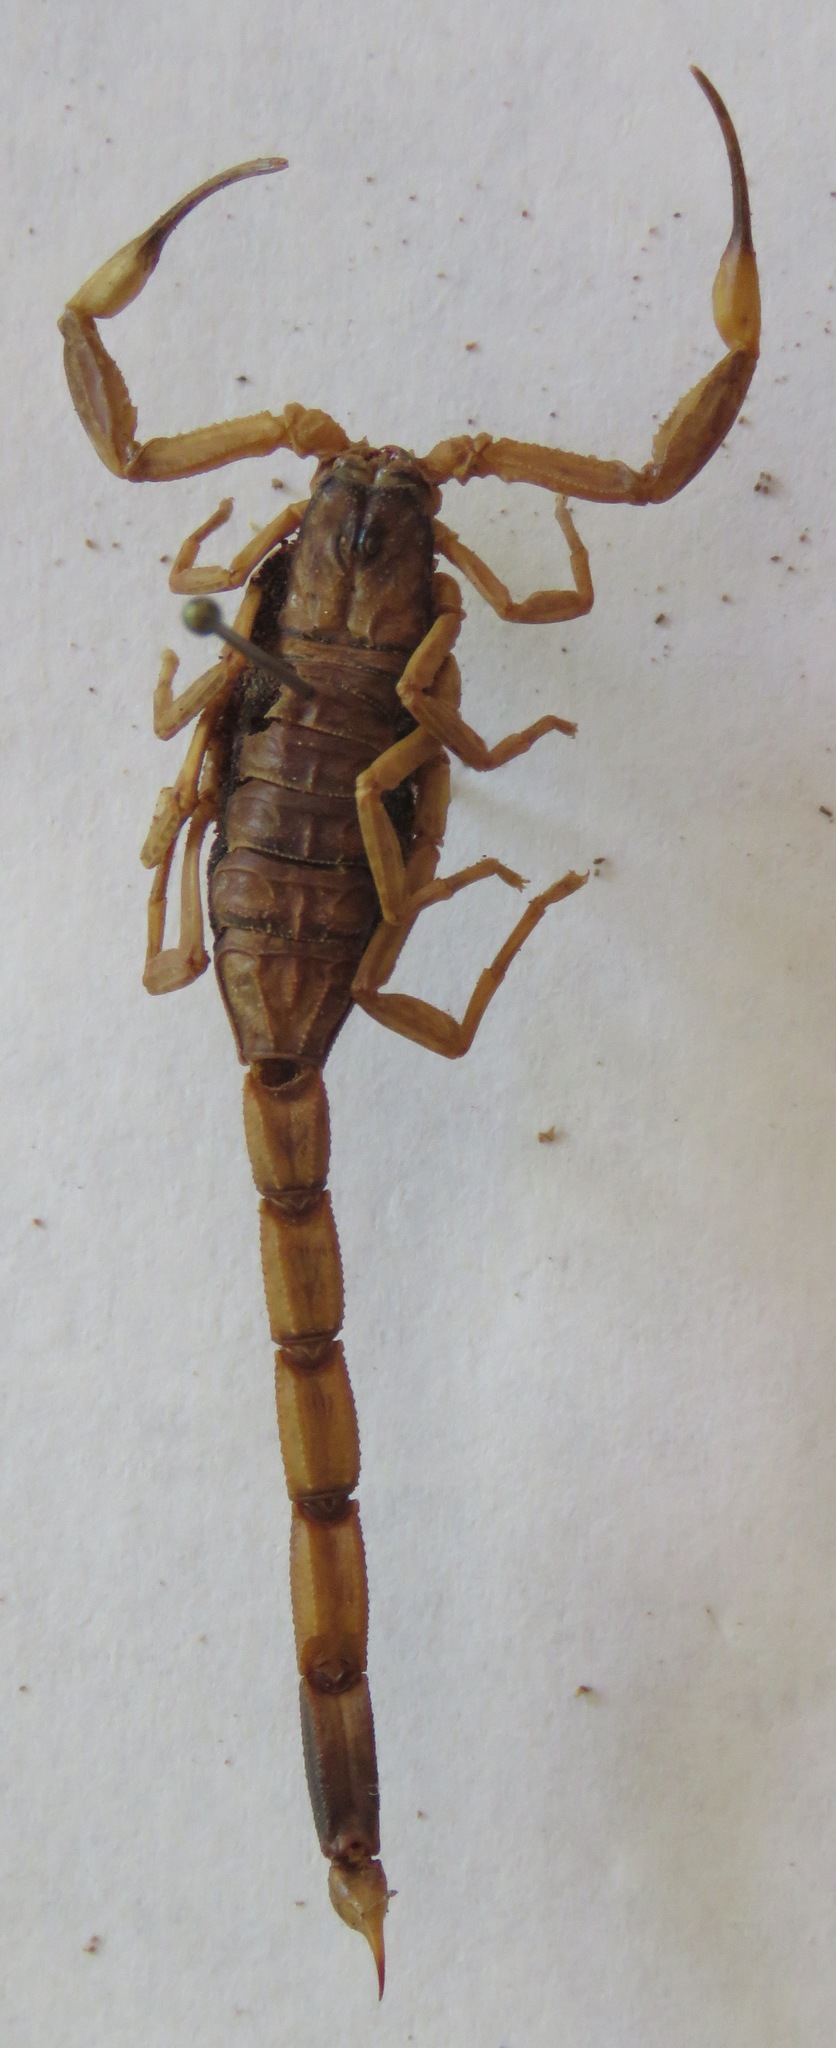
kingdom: Animalia
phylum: Arthropoda
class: Arachnida
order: Scorpiones
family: Buthidae
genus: Centruroides
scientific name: Centruroides limbatus
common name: Scorpions
